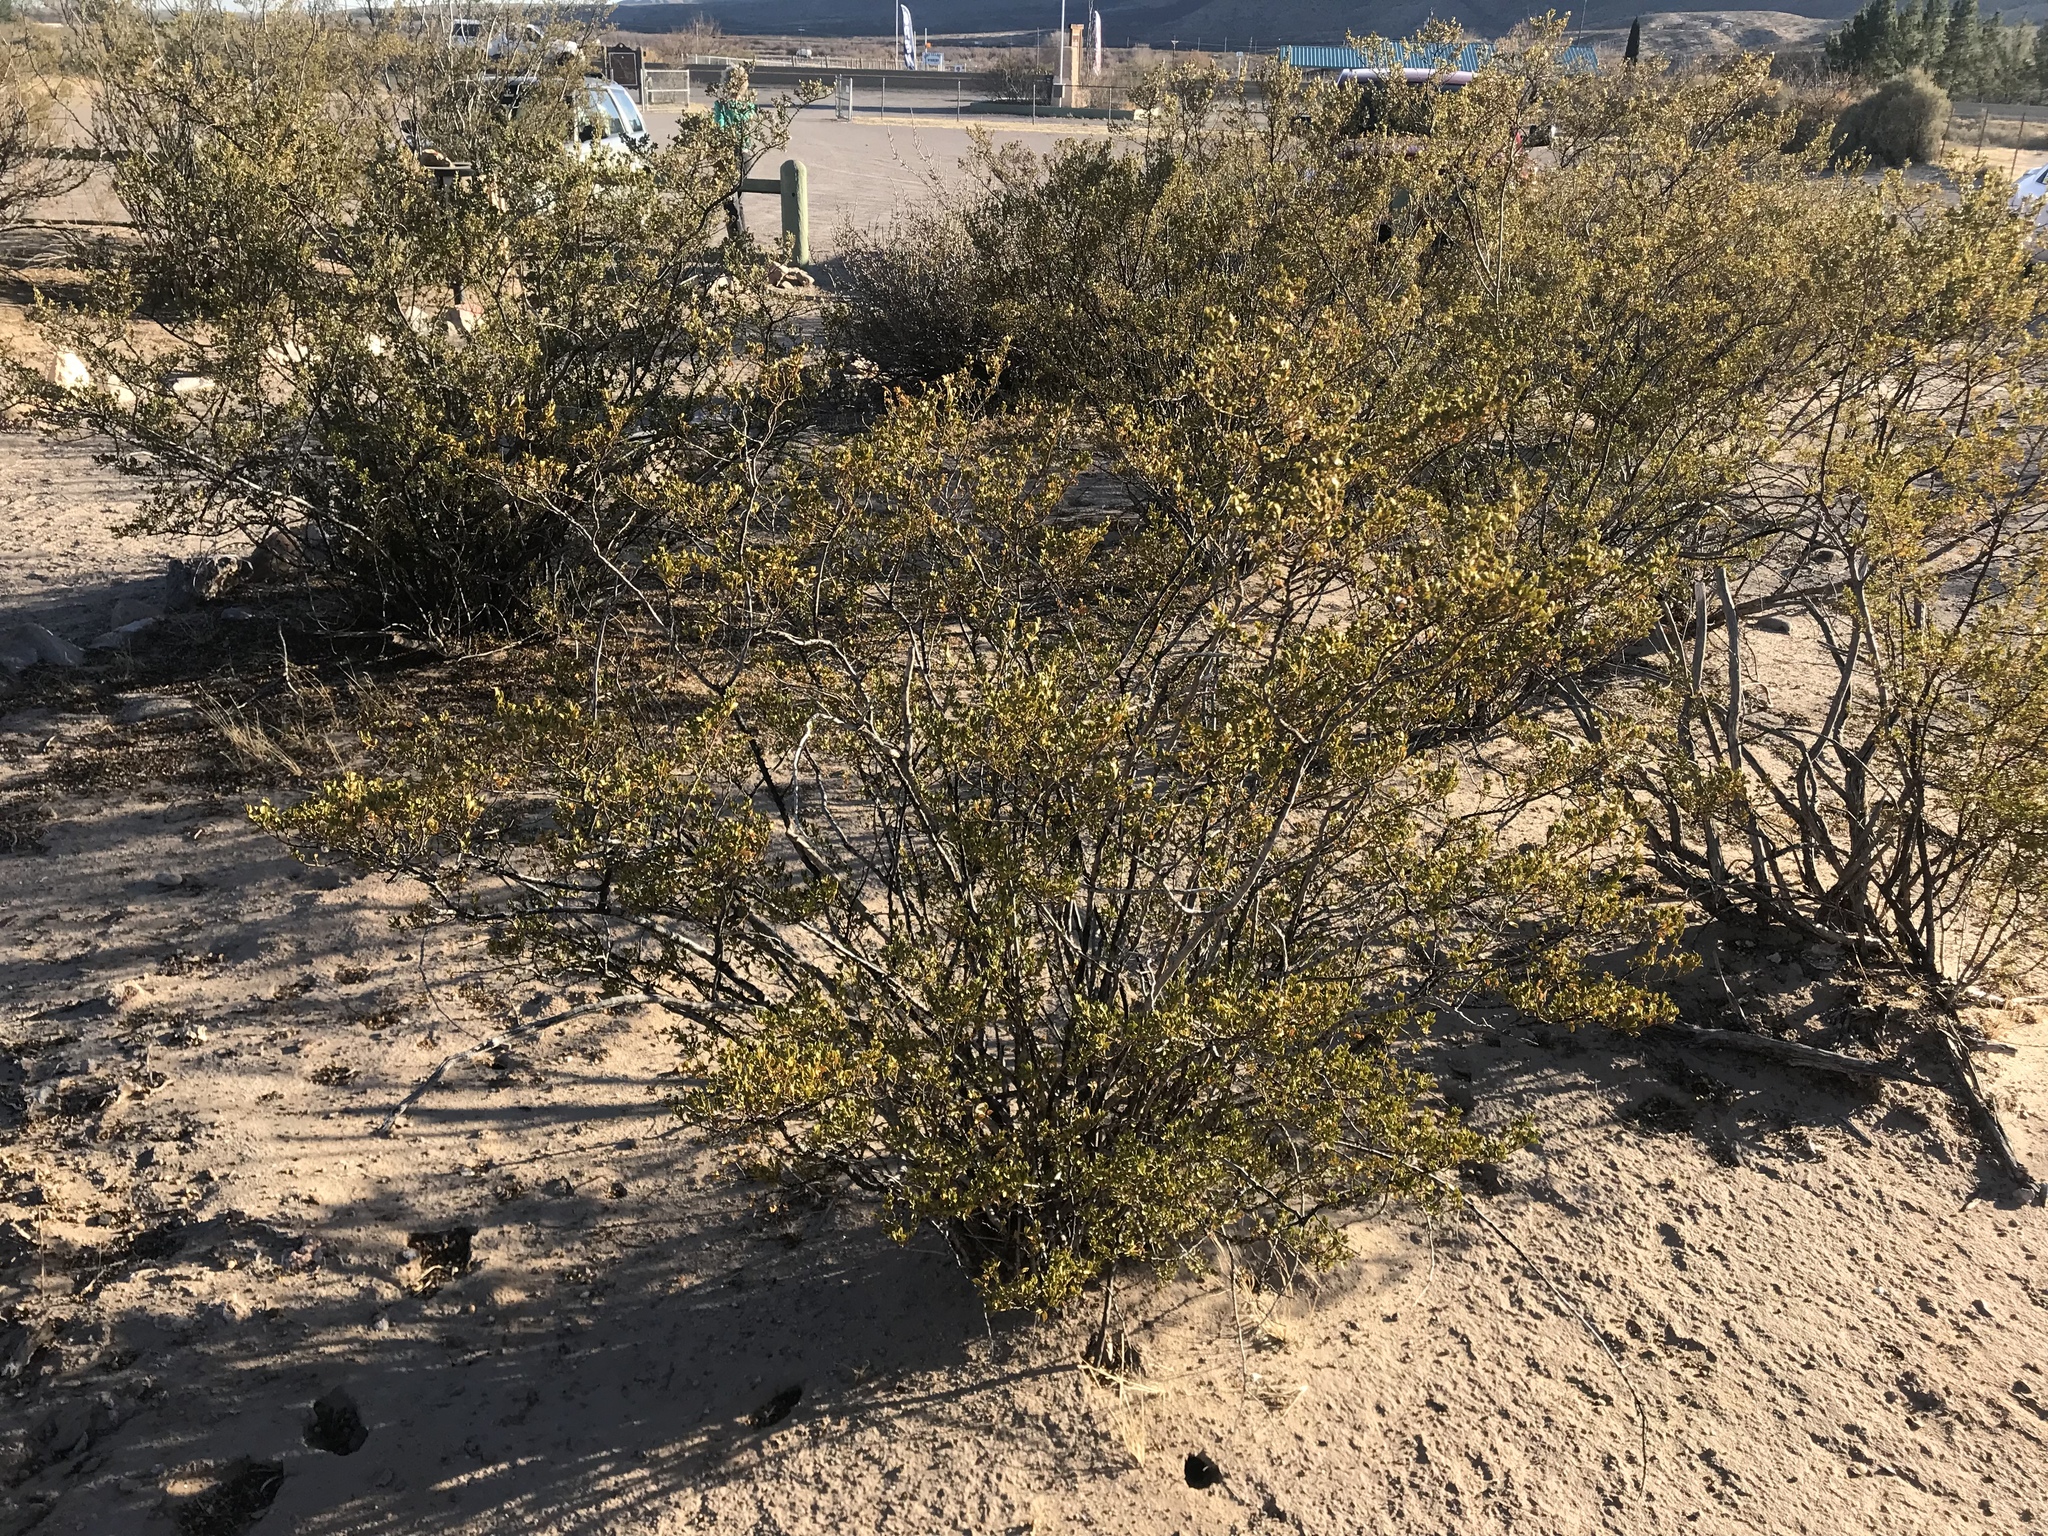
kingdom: Plantae
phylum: Tracheophyta
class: Magnoliopsida
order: Zygophyllales
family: Zygophyllaceae
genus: Larrea
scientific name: Larrea tridentata
